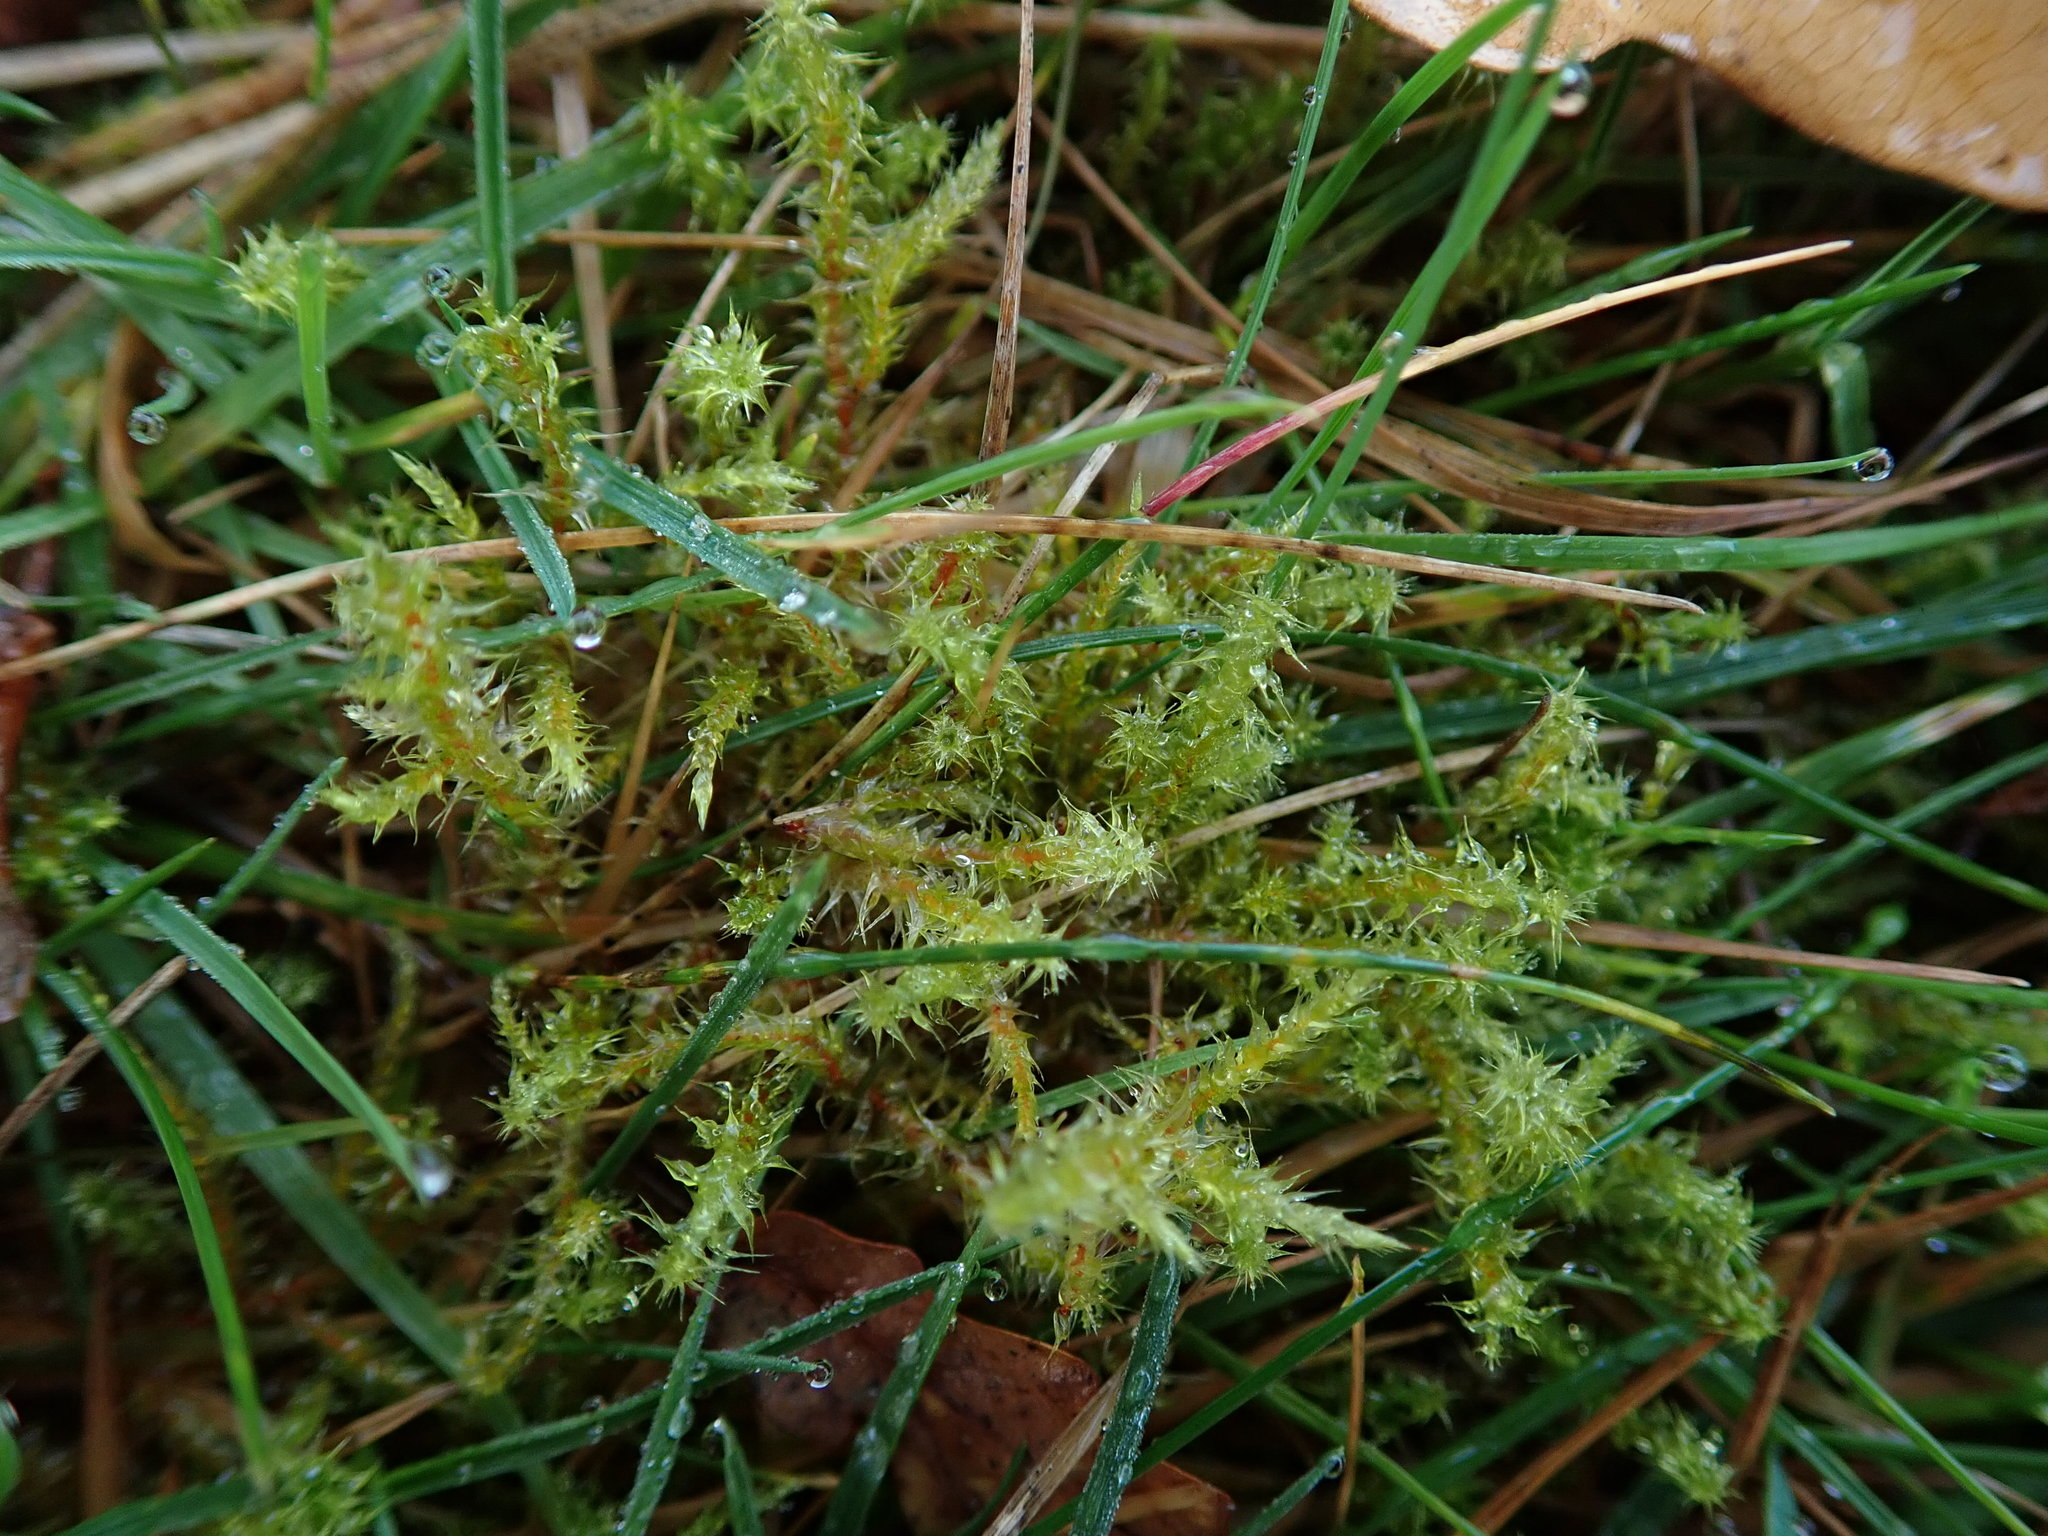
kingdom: Plantae
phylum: Bryophyta
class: Bryopsida
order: Hypnales
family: Hylocomiaceae
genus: Rhytidiadelphus
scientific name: Rhytidiadelphus squarrosus
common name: Springy turf-moss
